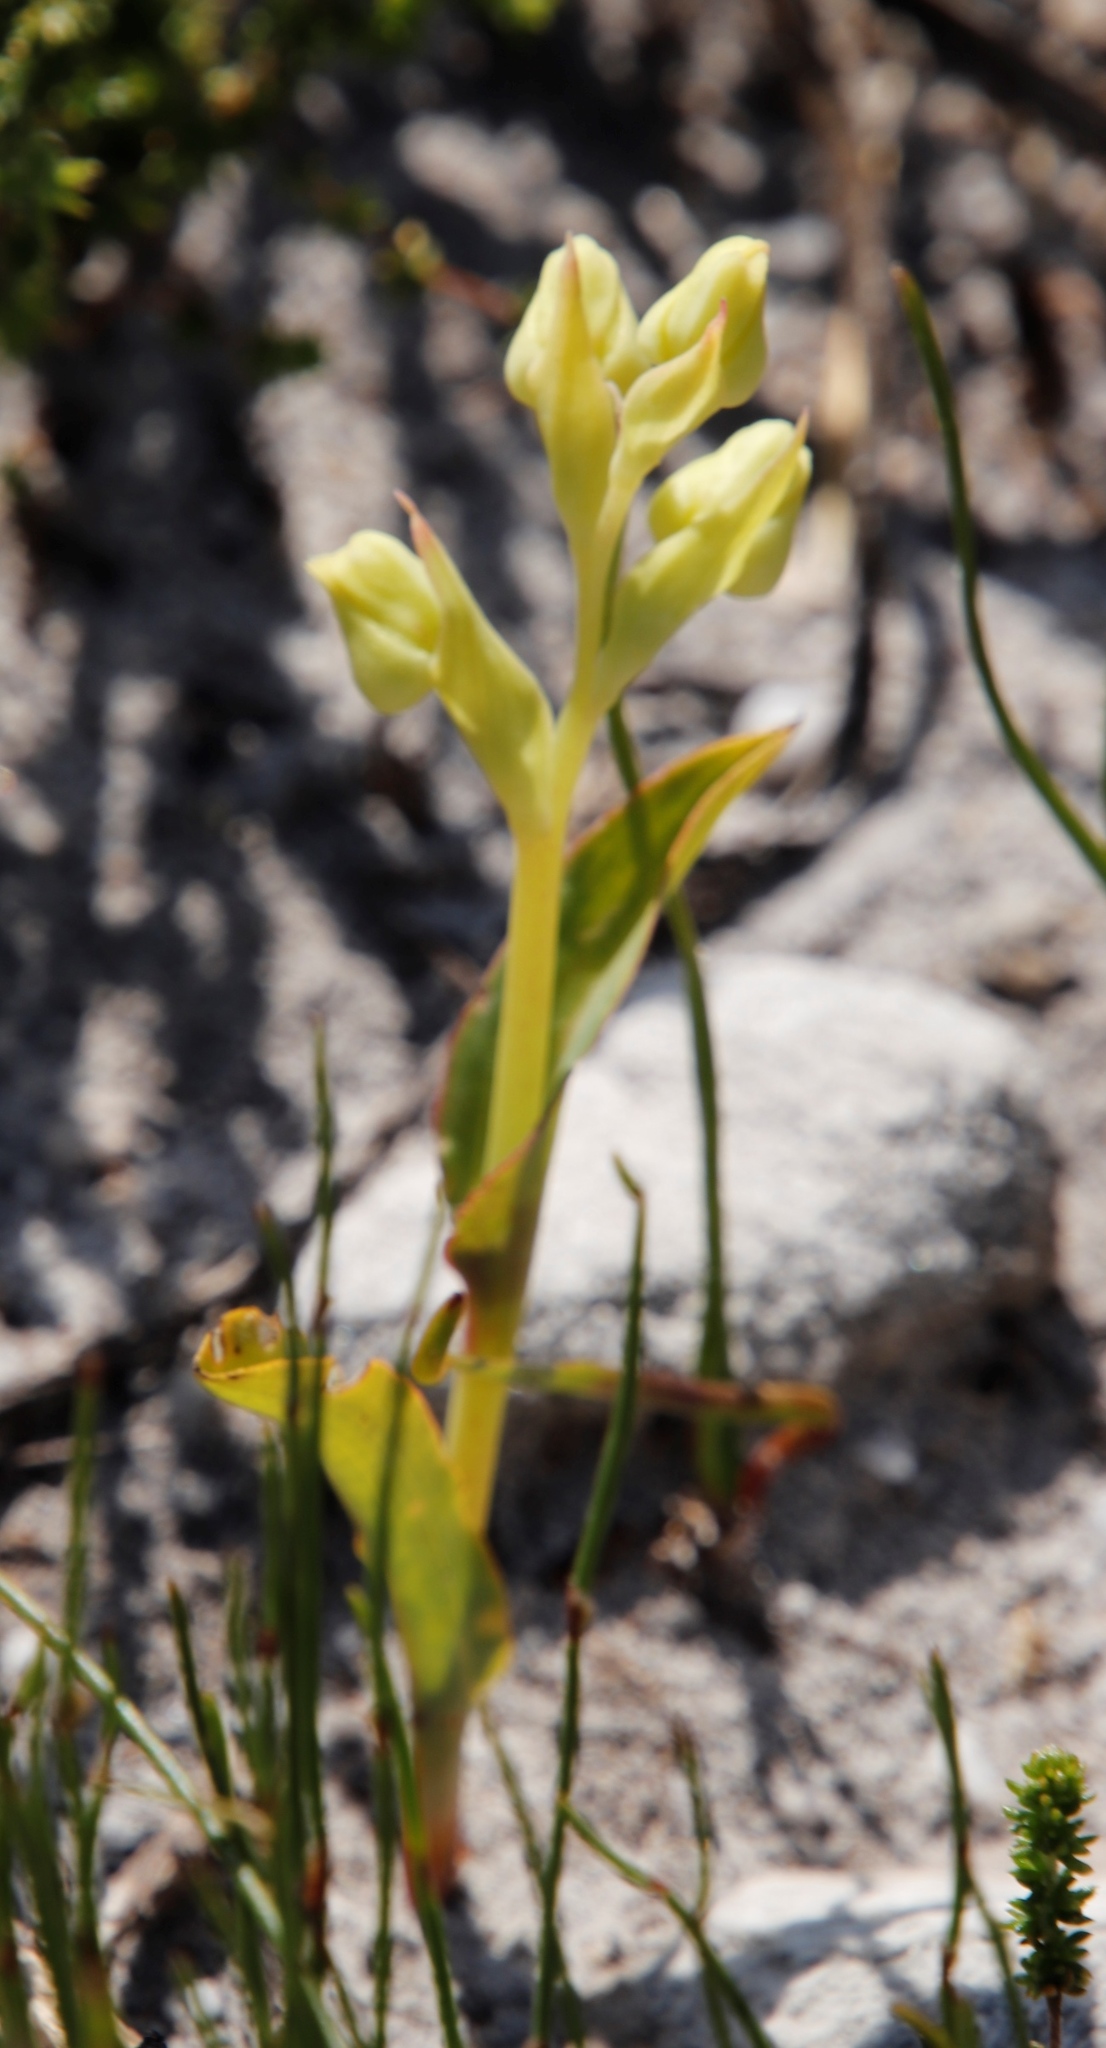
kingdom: Plantae
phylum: Tracheophyta
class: Liliopsida
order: Asparagales
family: Orchidaceae
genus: Pterygodium
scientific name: Pterygodium catholicum
